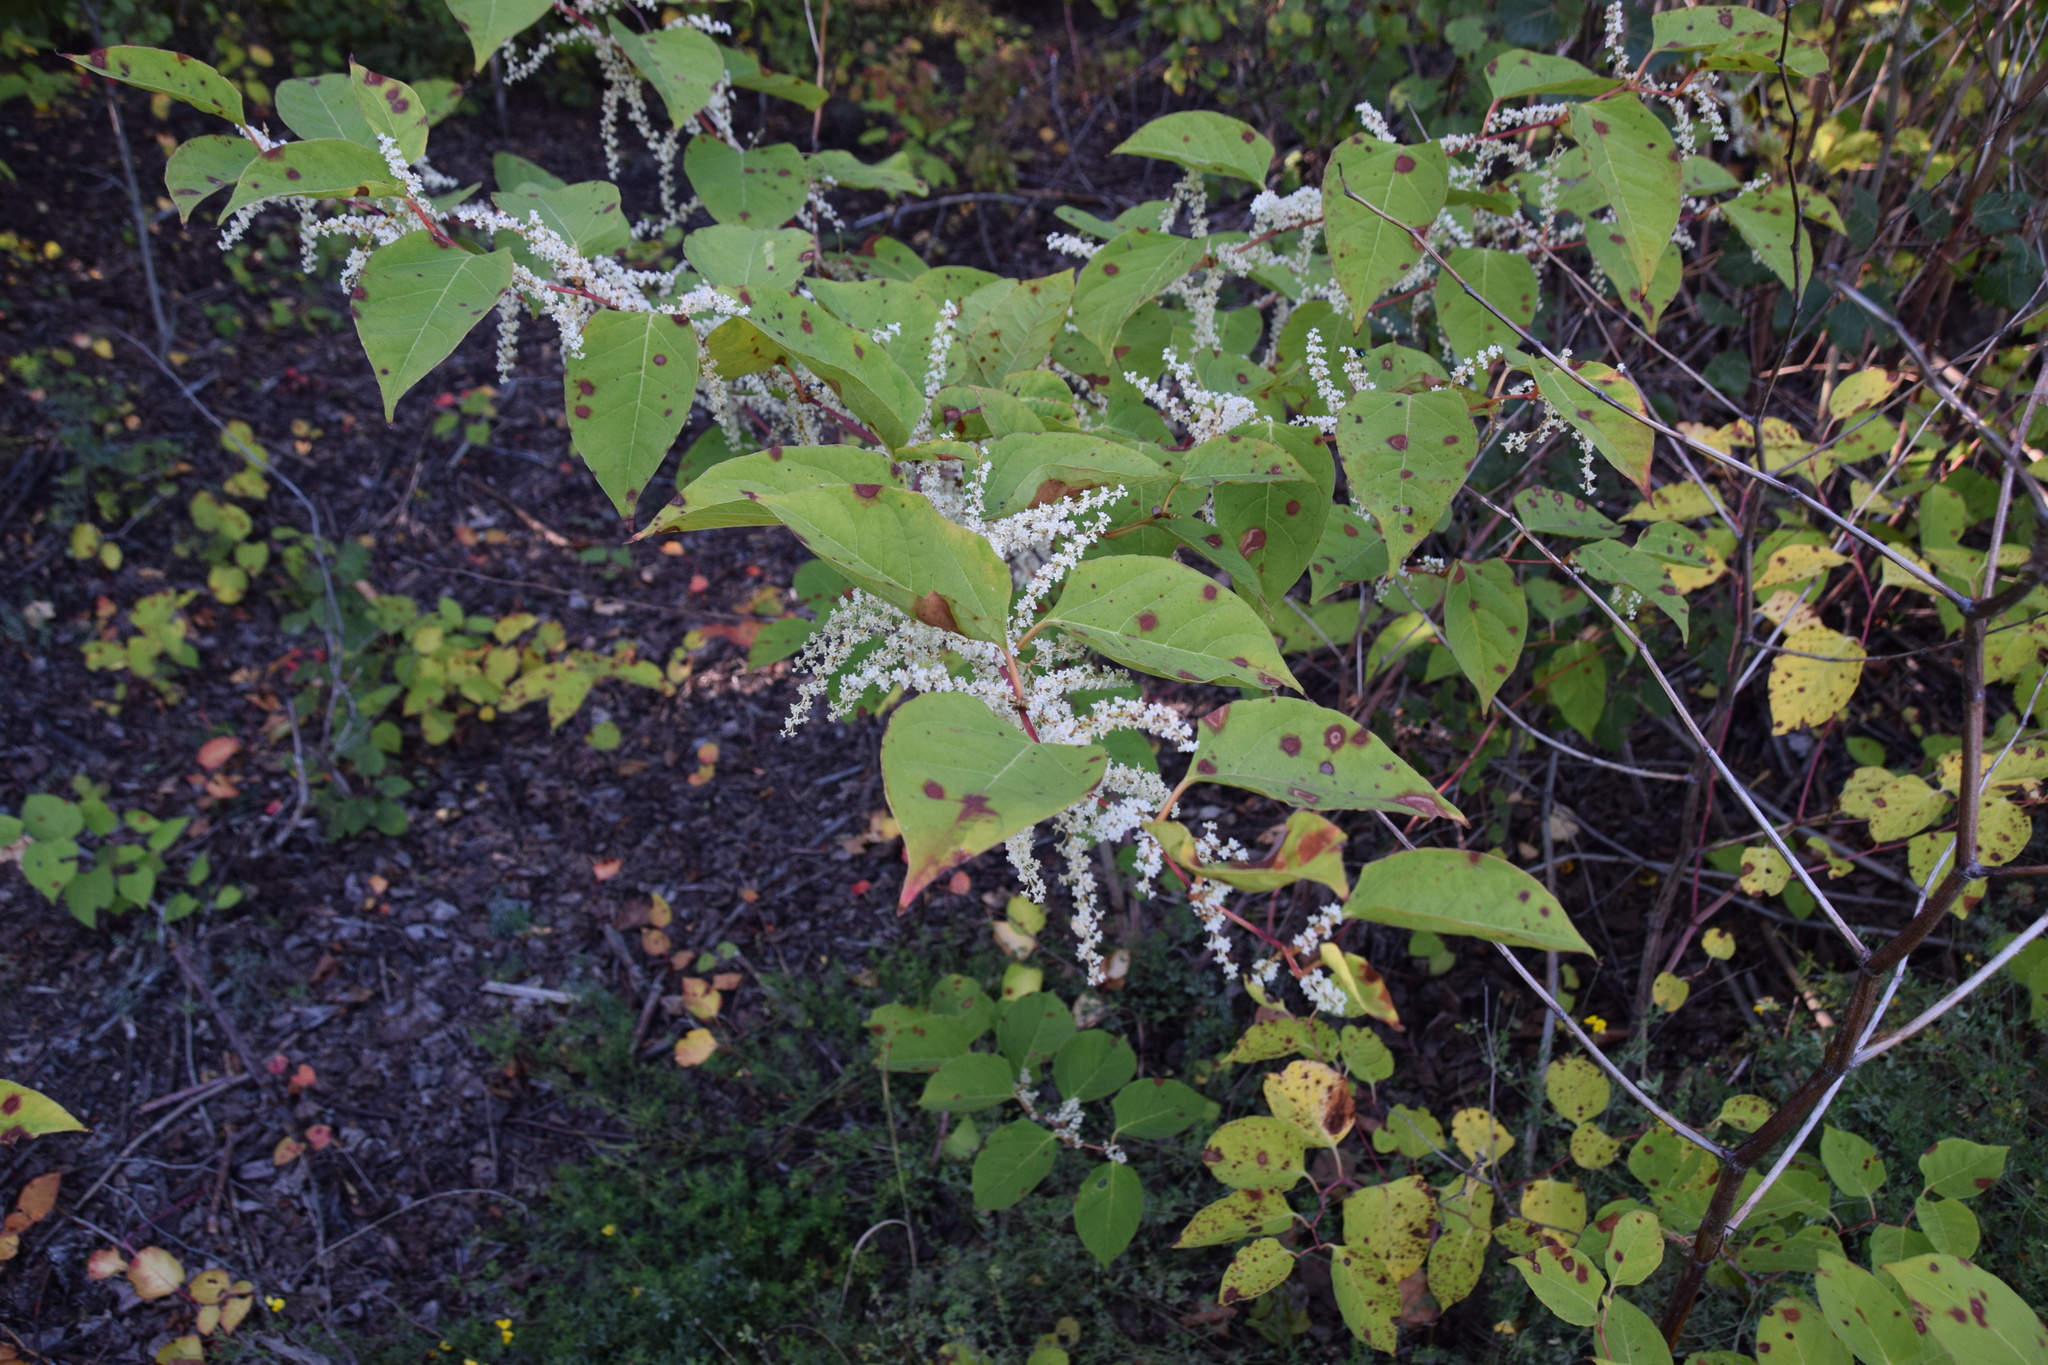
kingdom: Plantae
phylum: Tracheophyta
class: Magnoliopsida
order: Caryophyllales
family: Polygonaceae
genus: Reynoutria
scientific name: Reynoutria japonica
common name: Japanese knotweed
